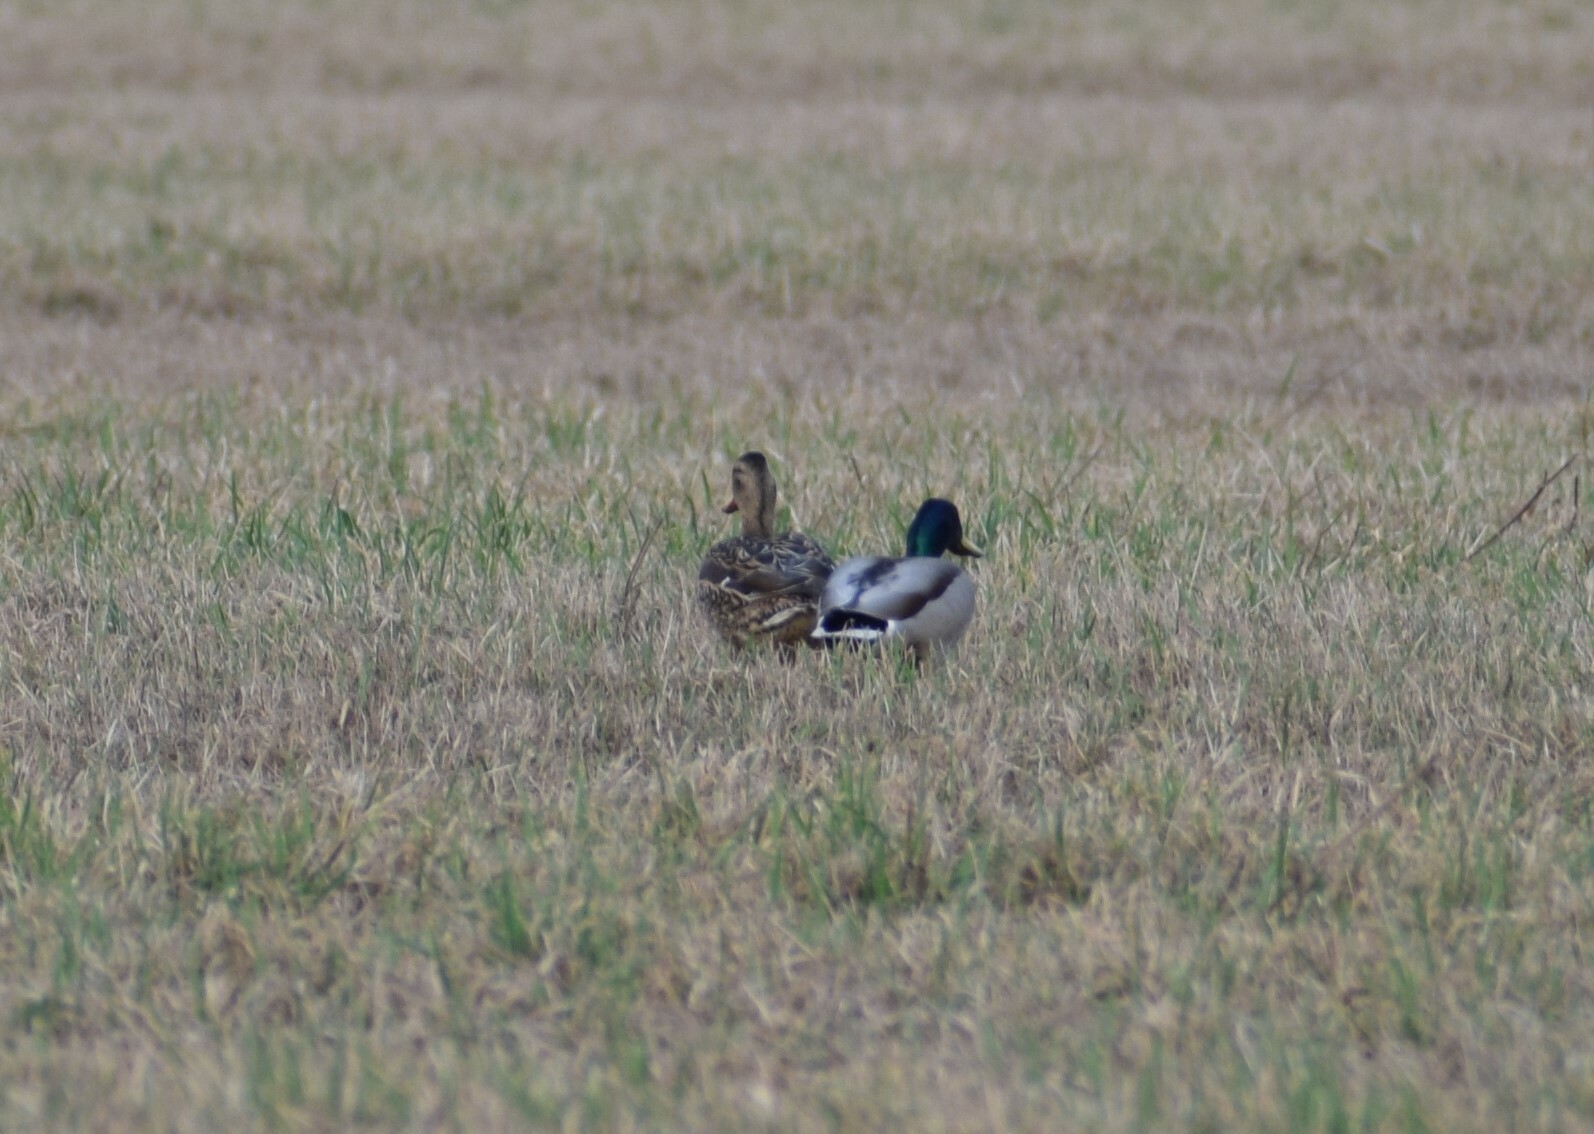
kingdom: Animalia
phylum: Chordata
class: Aves
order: Anseriformes
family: Anatidae
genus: Anas
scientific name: Anas platyrhynchos
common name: Mallard
